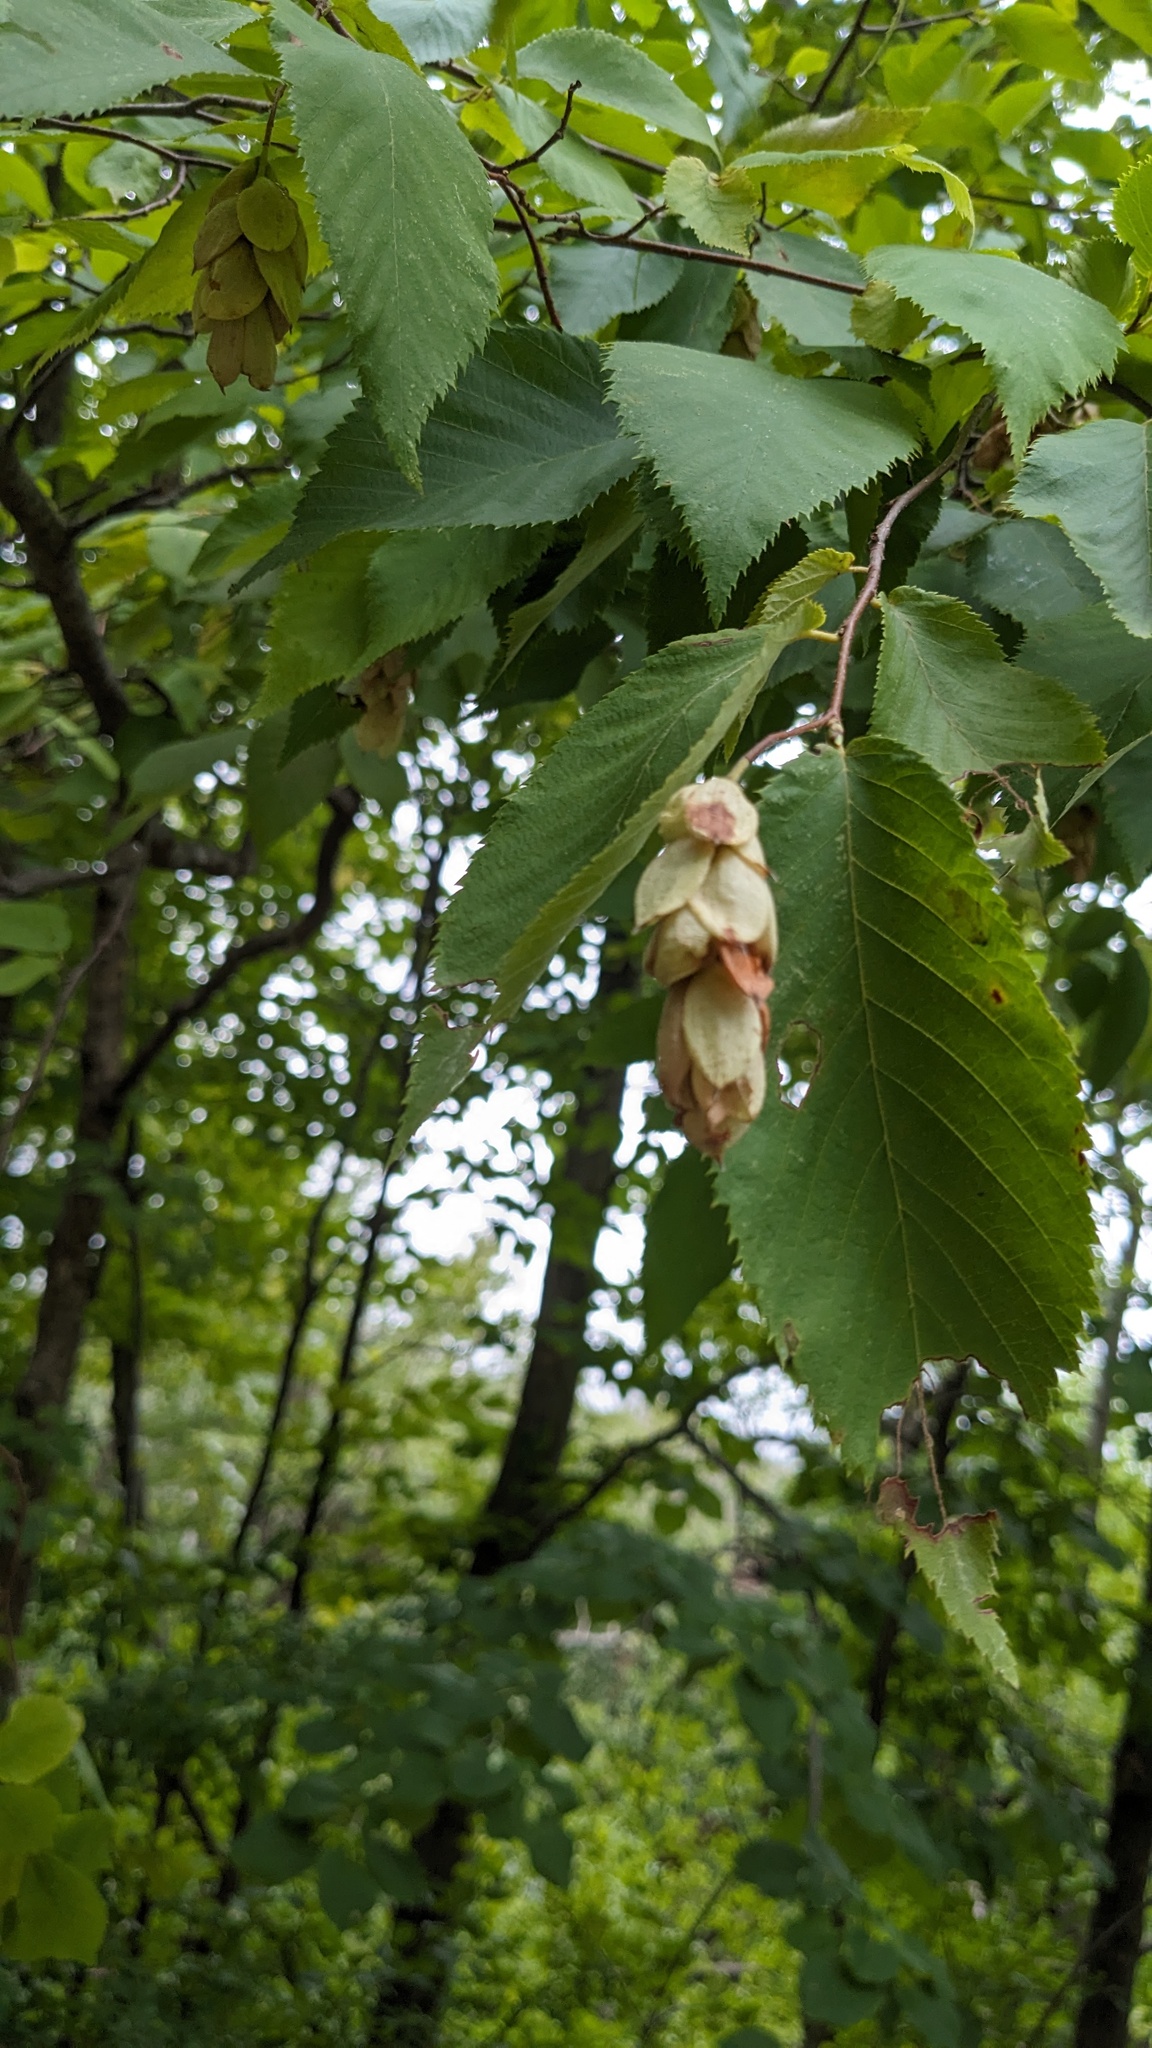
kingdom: Plantae
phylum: Tracheophyta
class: Magnoliopsida
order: Fagales
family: Betulaceae
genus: Ostrya
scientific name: Ostrya virginiana
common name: Ironwood
